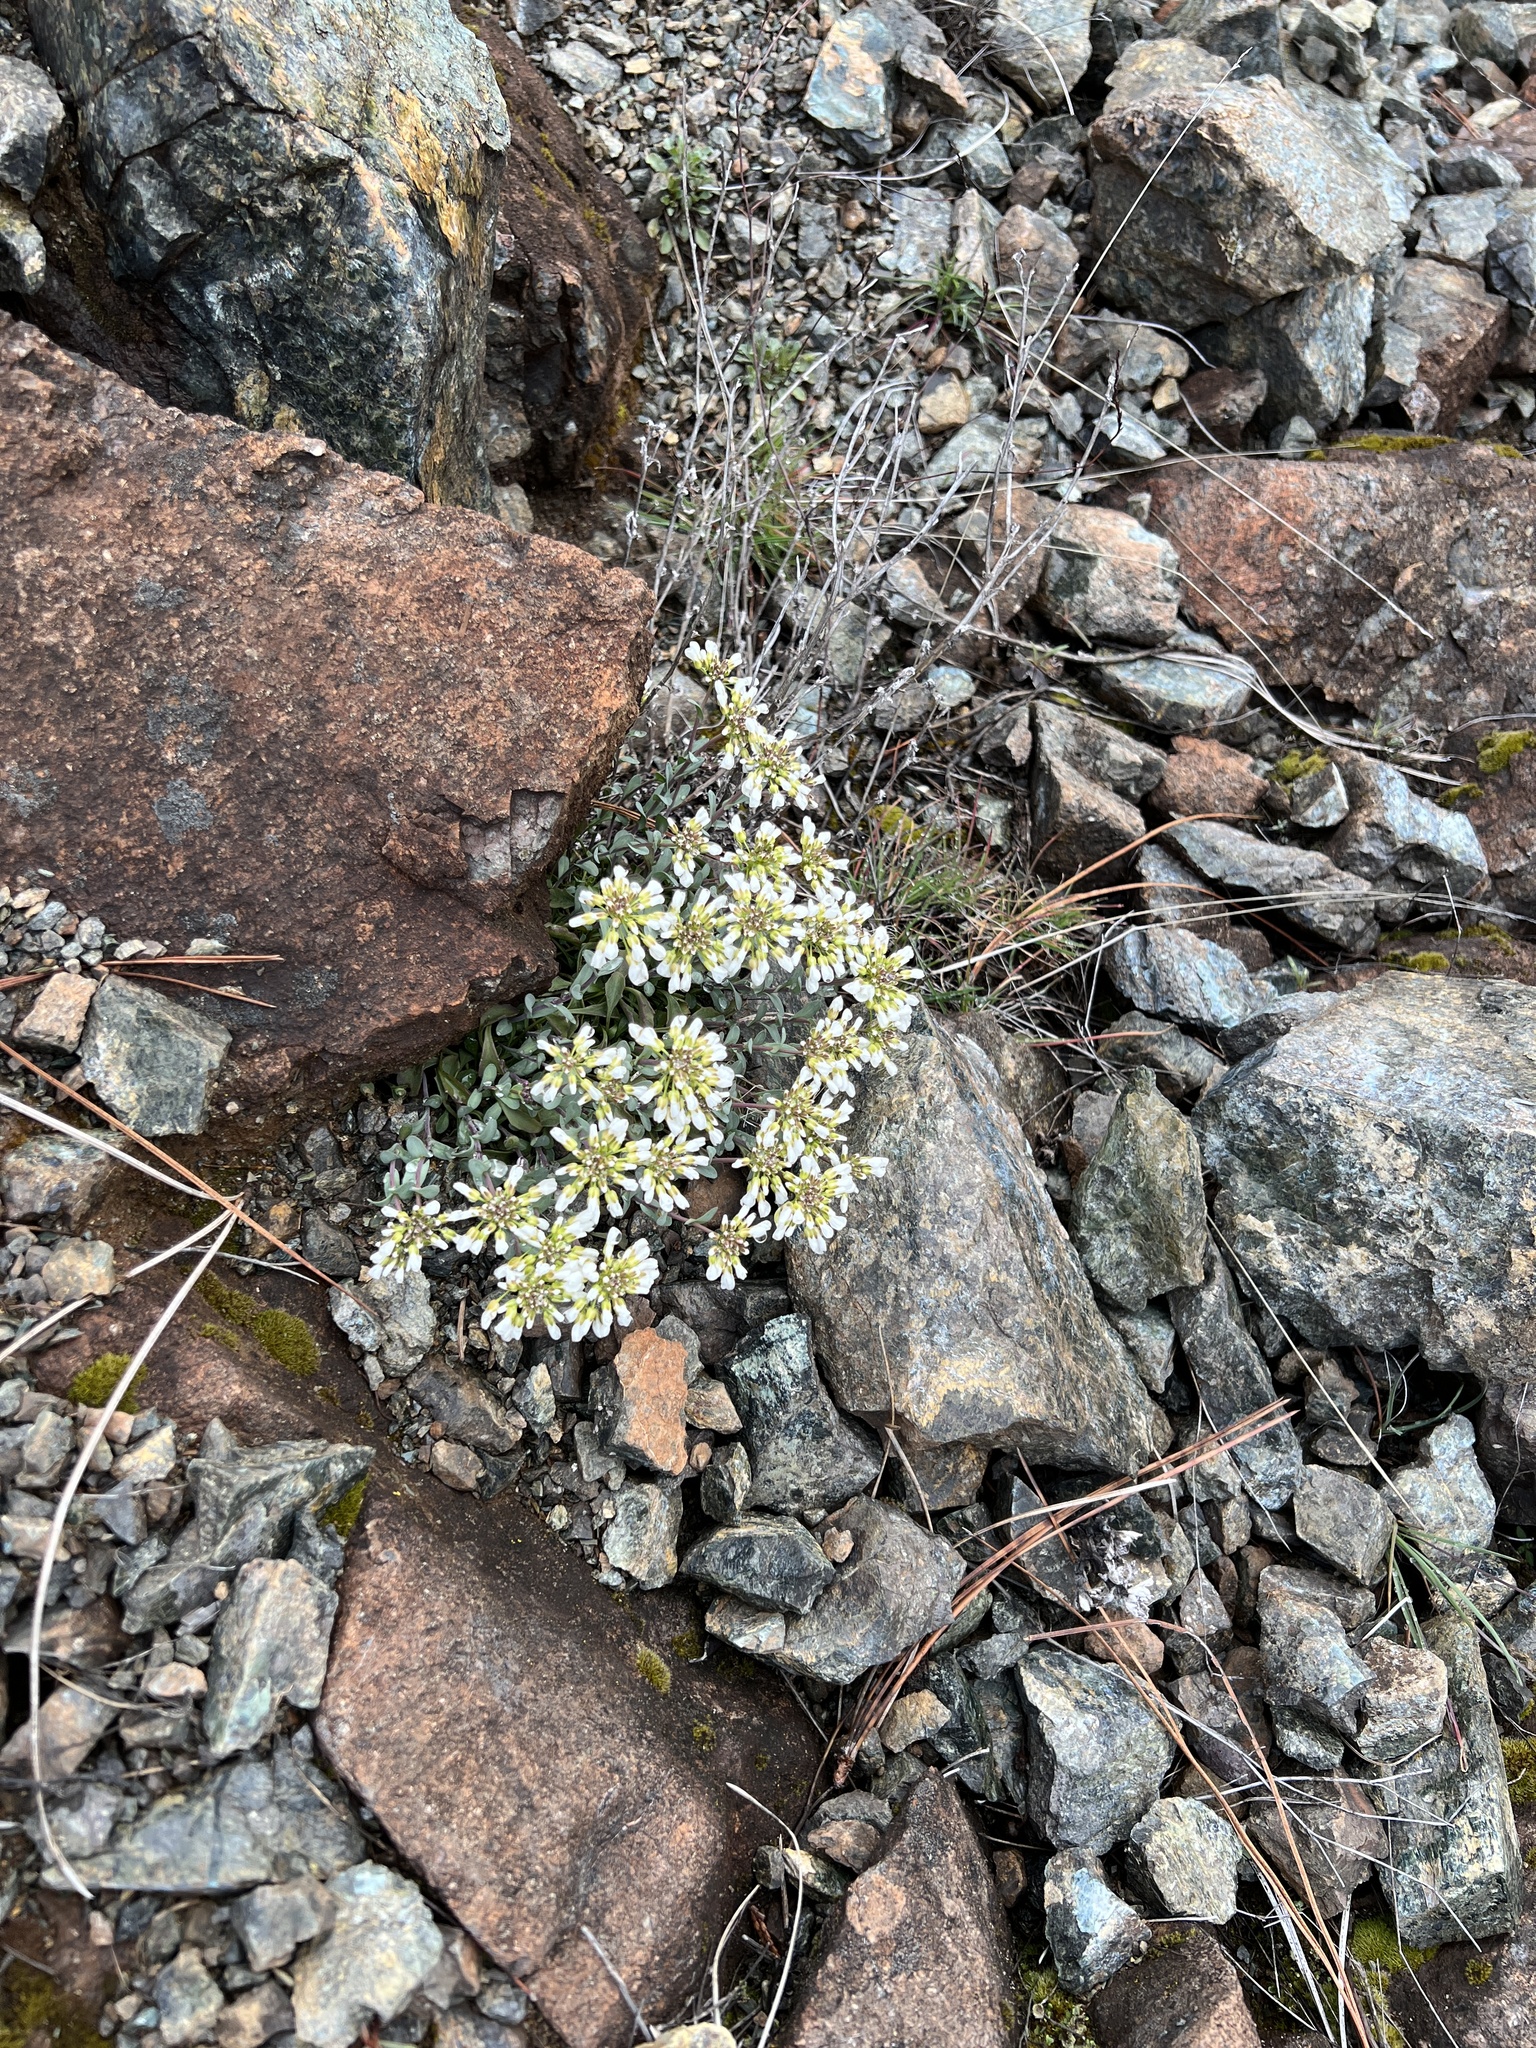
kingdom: Plantae
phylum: Tracheophyta
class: Magnoliopsida
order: Brassicales
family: Brassicaceae
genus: Noccaea
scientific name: Noccaea fendleri
